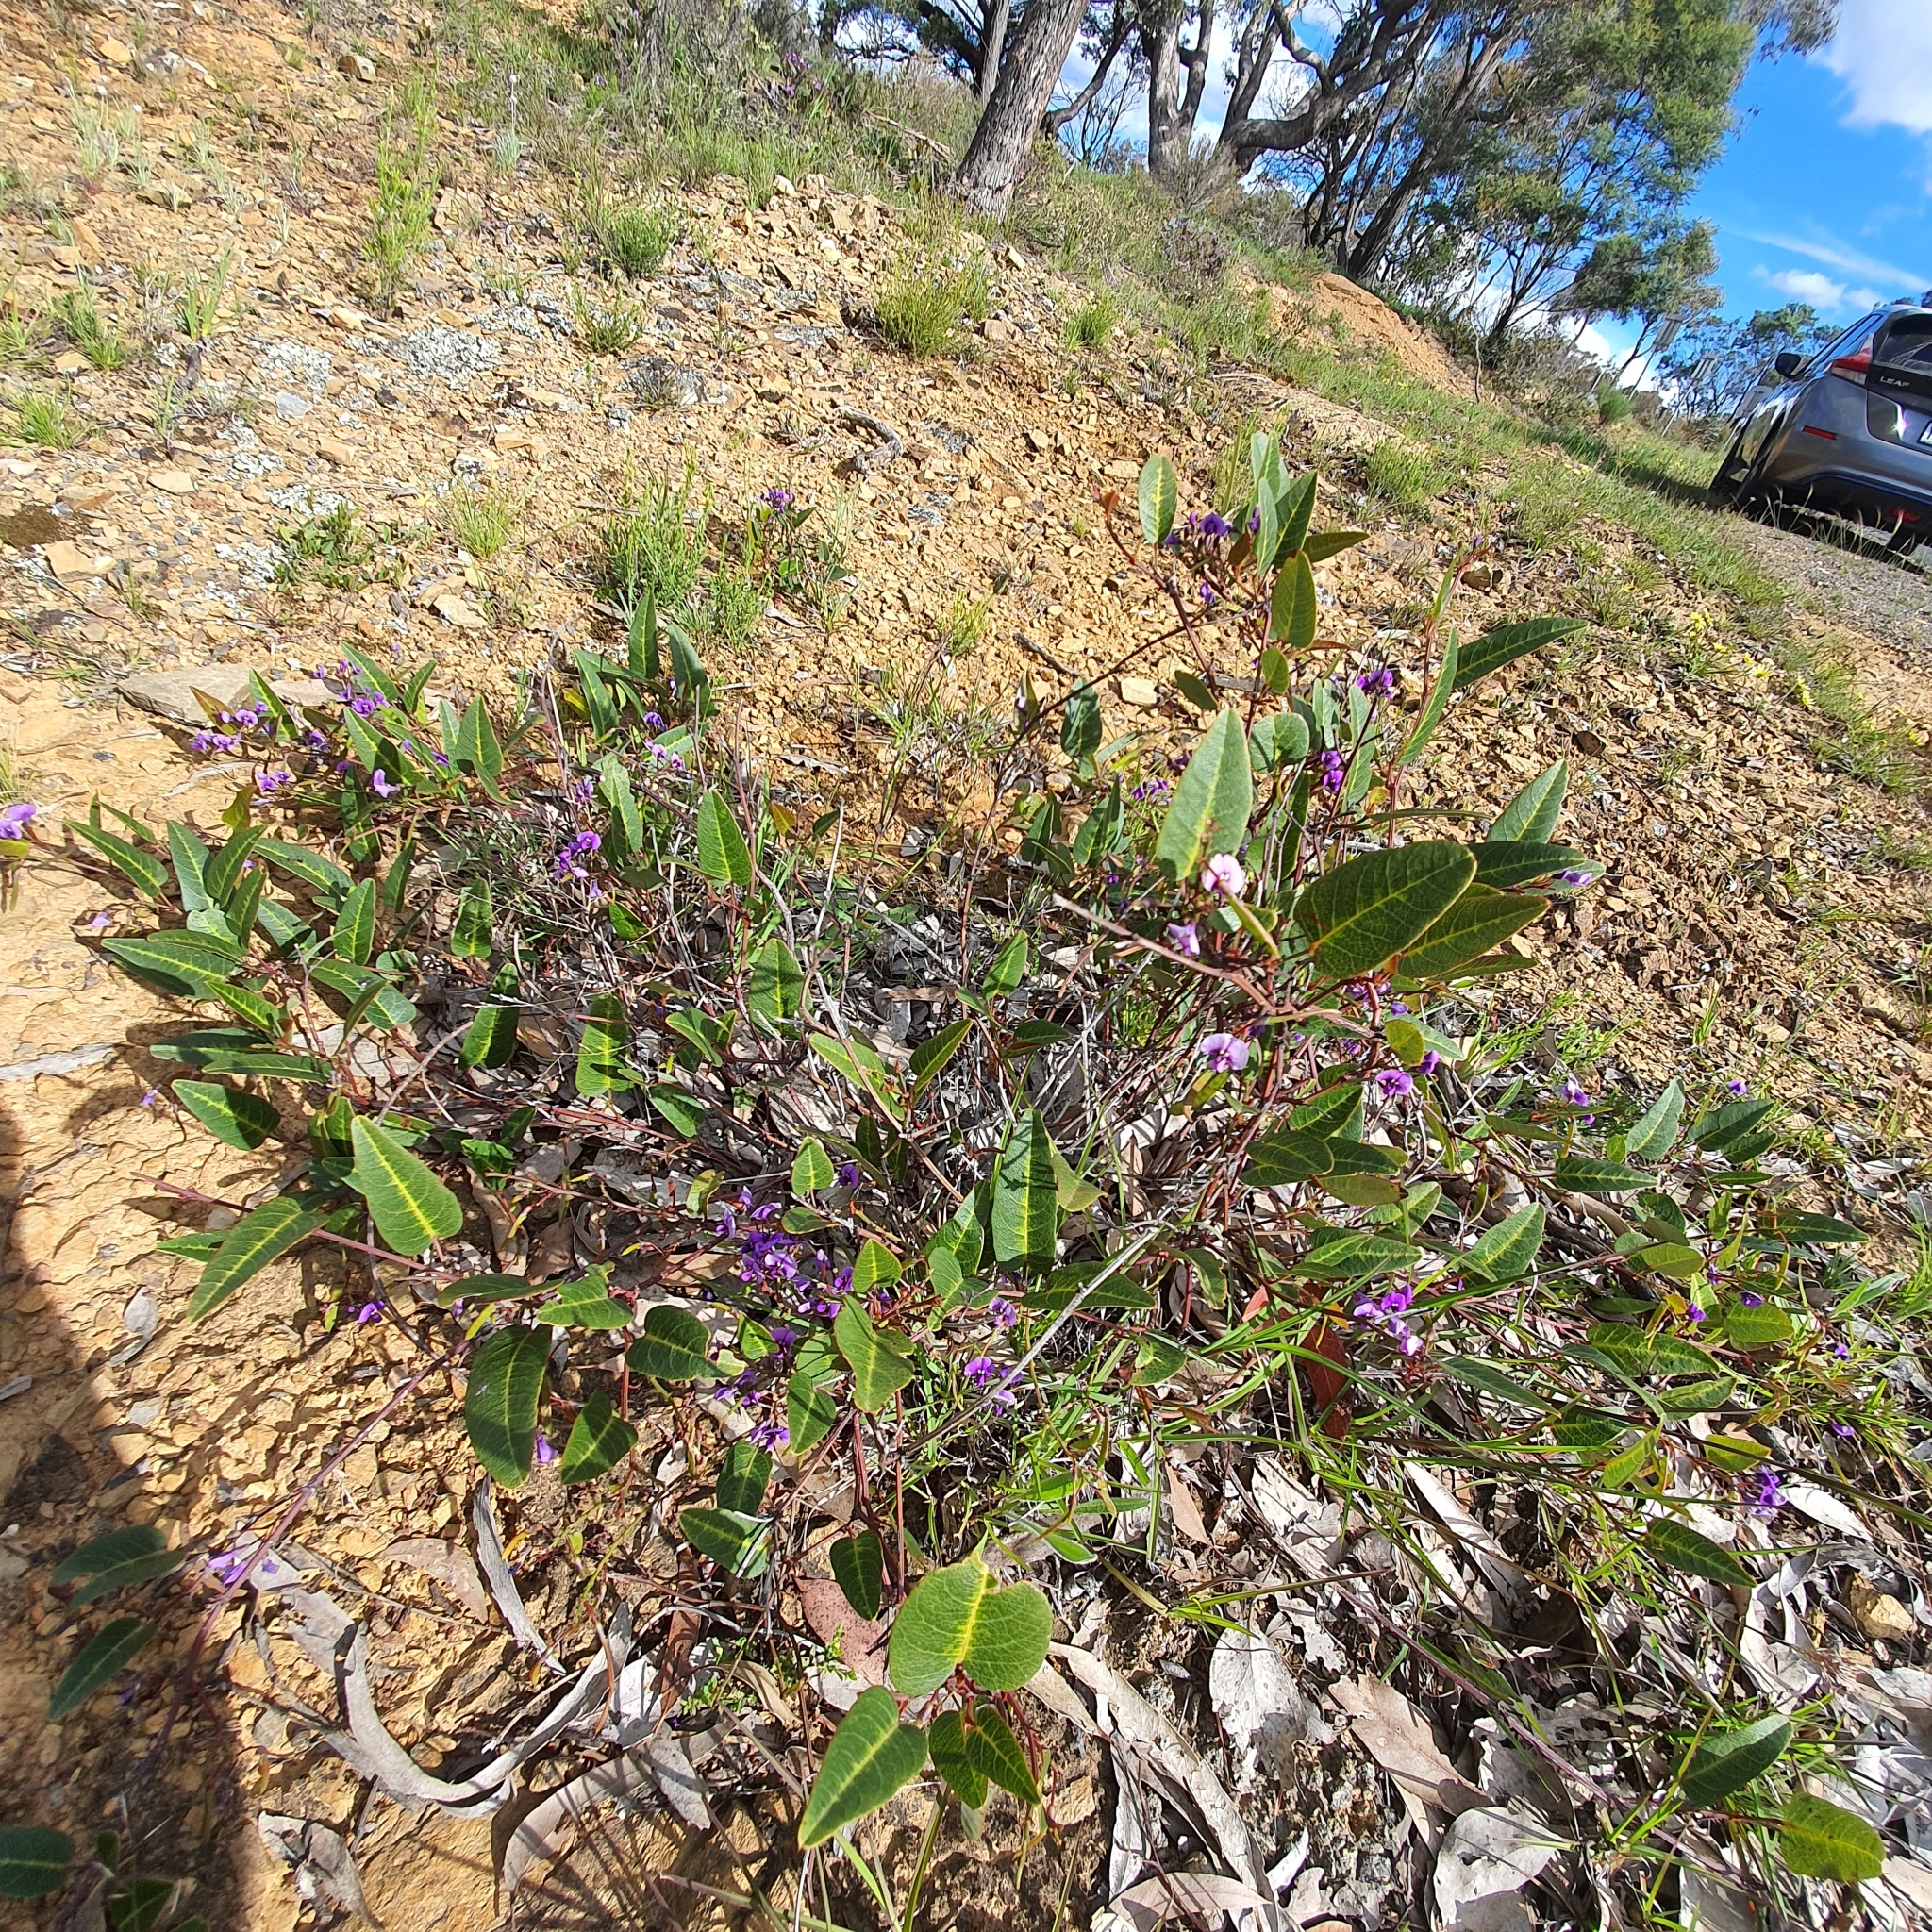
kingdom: Plantae
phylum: Tracheophyta
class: Magnoliopsida
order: Fabales
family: Fabaceae
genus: Hardenbergia
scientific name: Hardenbergia violacea
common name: Coral-pea
